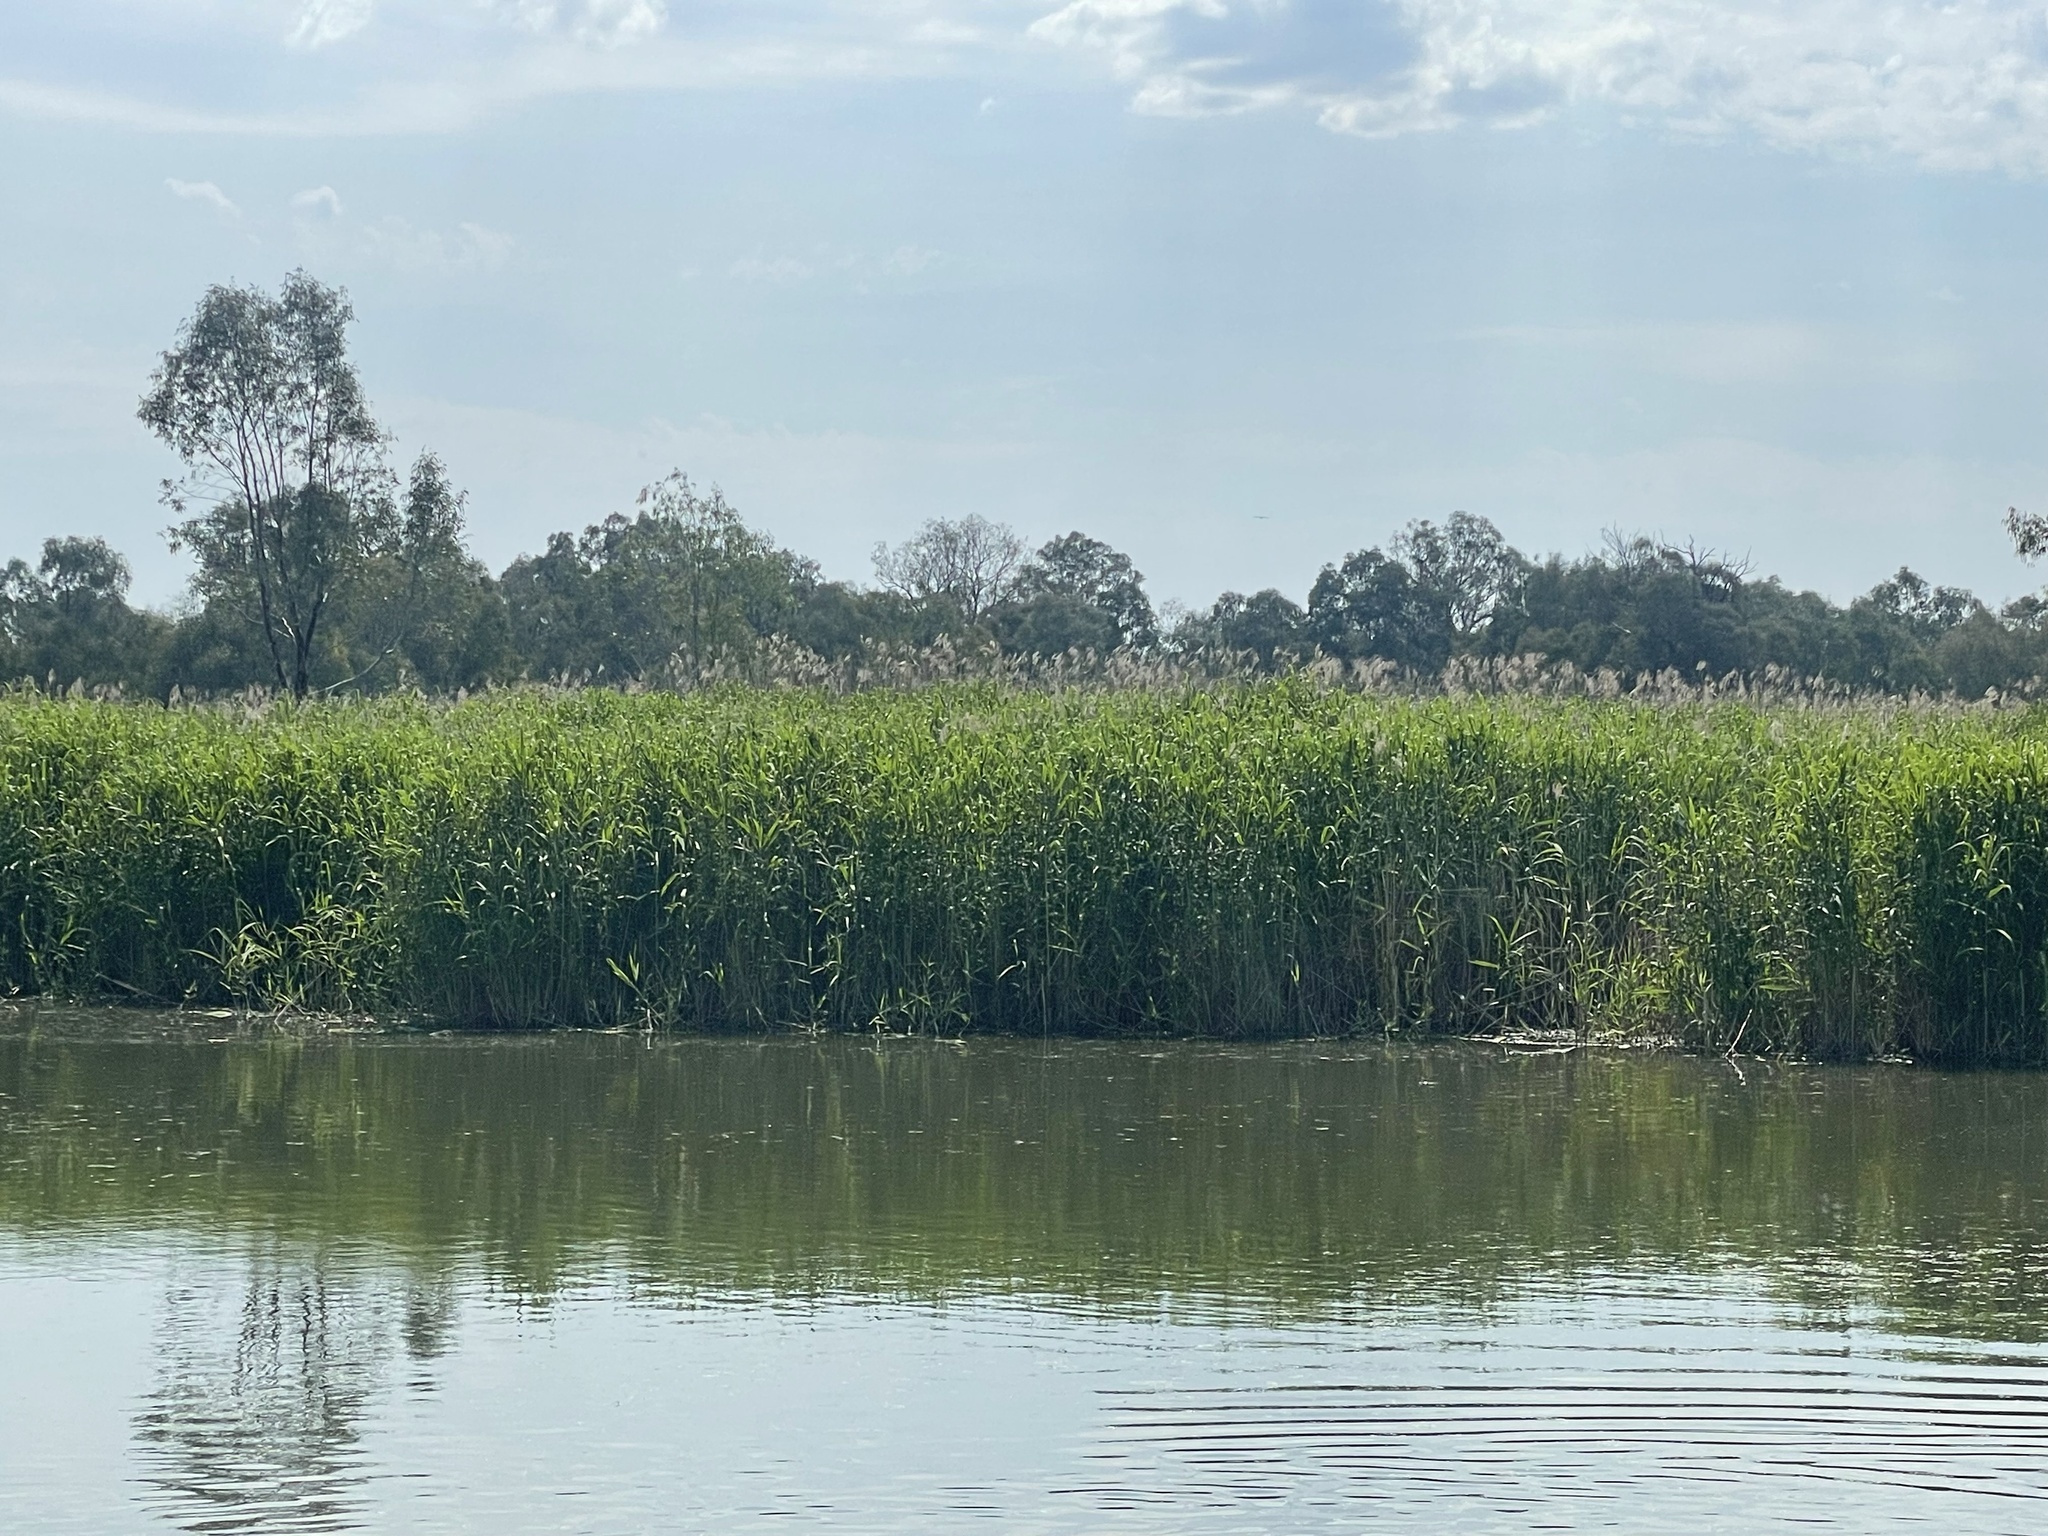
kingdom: Plantae
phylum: Tracheophyta
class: Liliopsida
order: Poales
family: Poaceae
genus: Phragmites
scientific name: Phragmites australis
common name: Common reed
